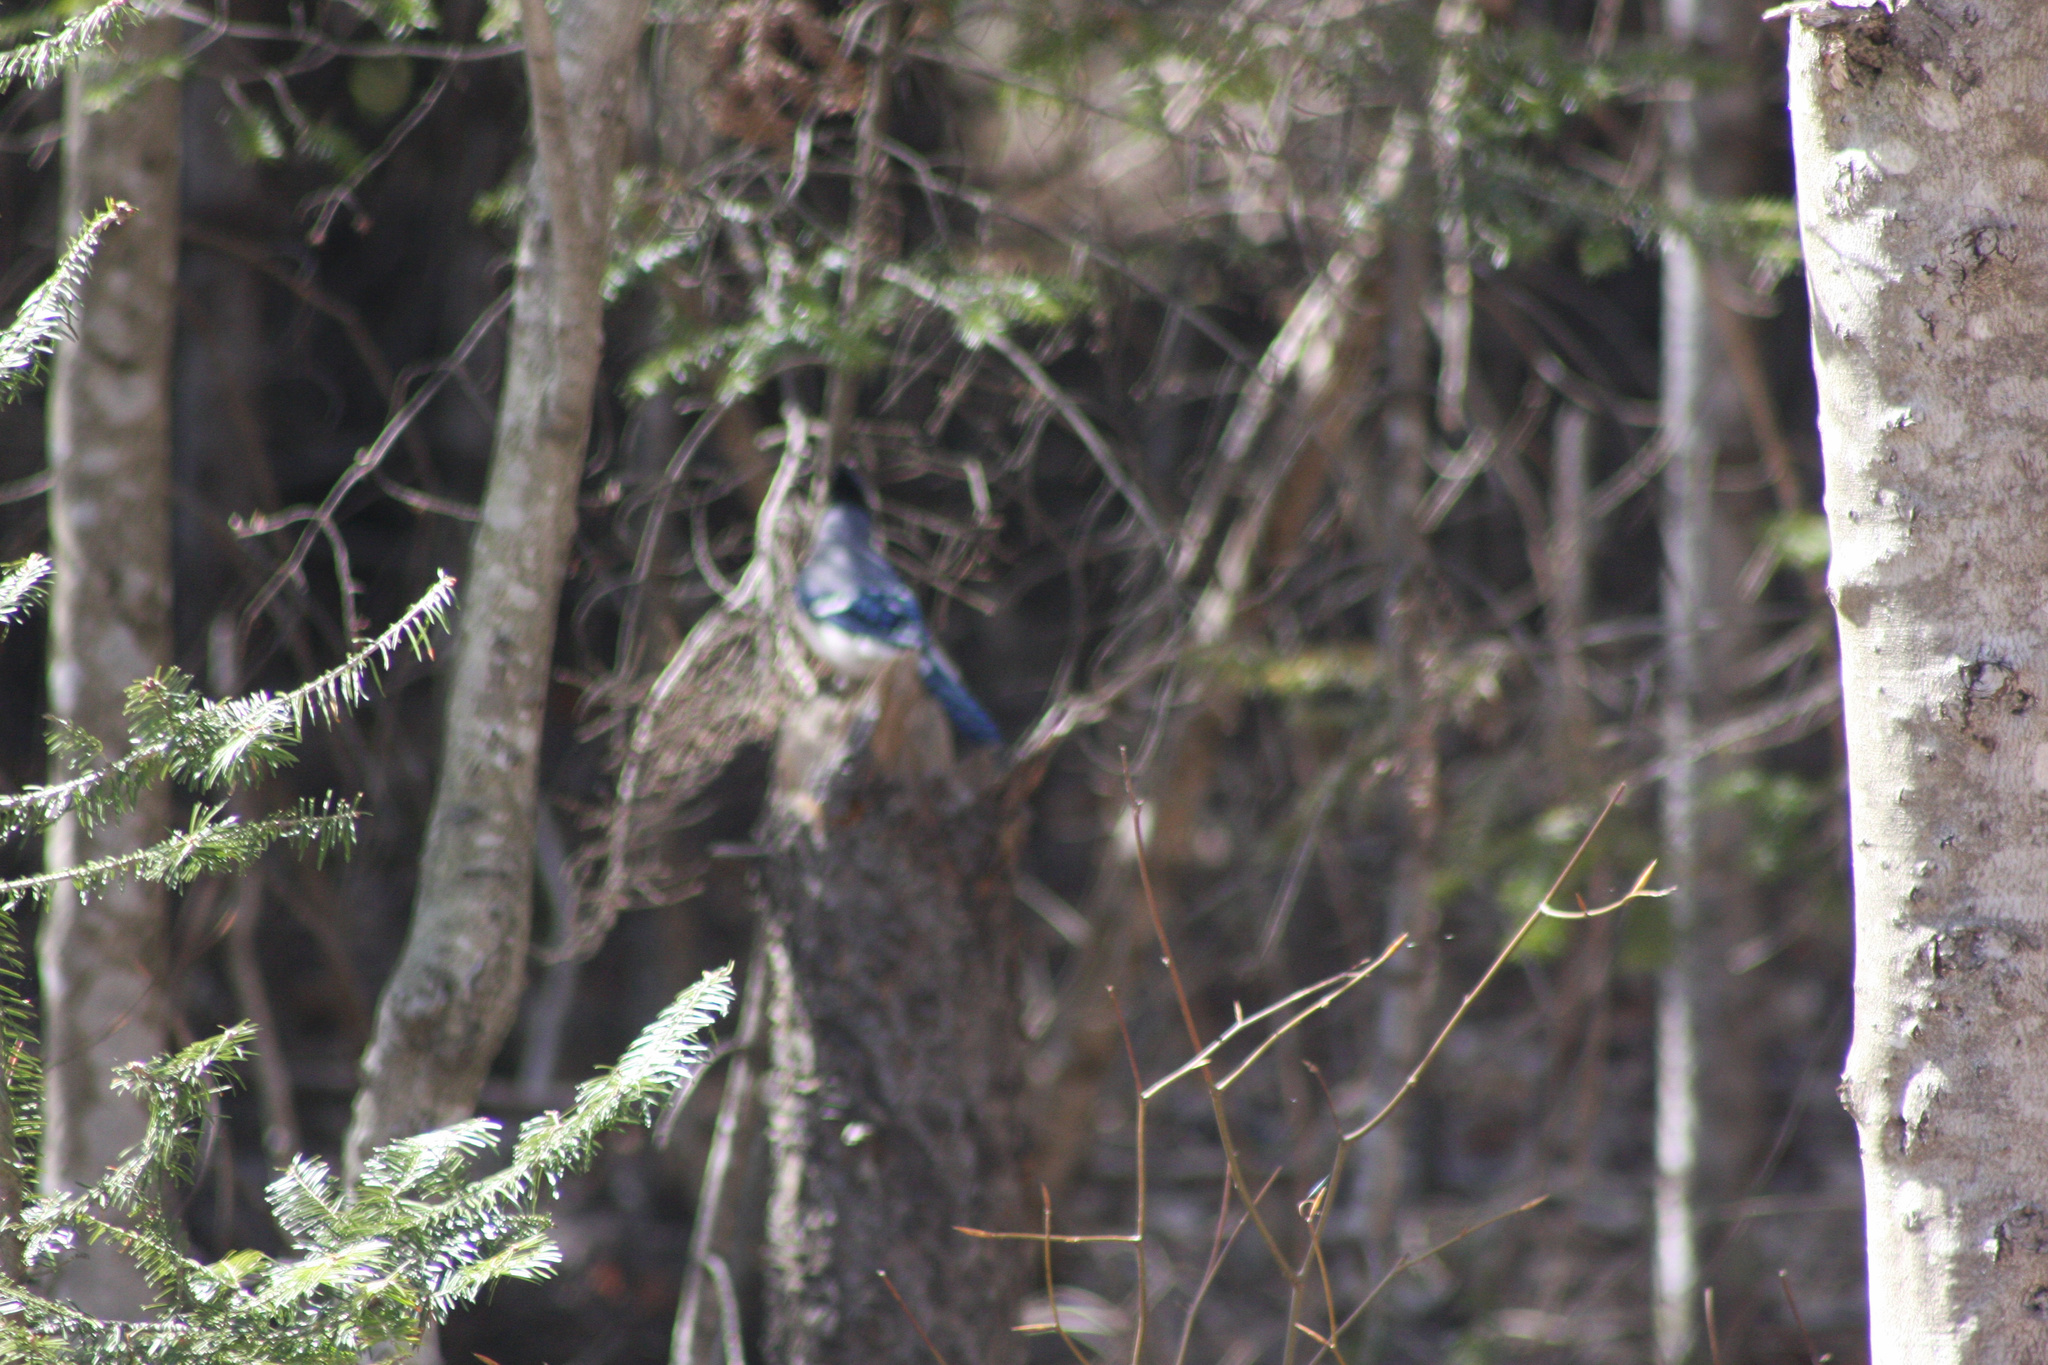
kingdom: Animalia
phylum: Chordata
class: Aves
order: Passeriformes
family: Corvidae
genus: Cyanocitta
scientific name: Cyanocitta cristata
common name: Blue jay
